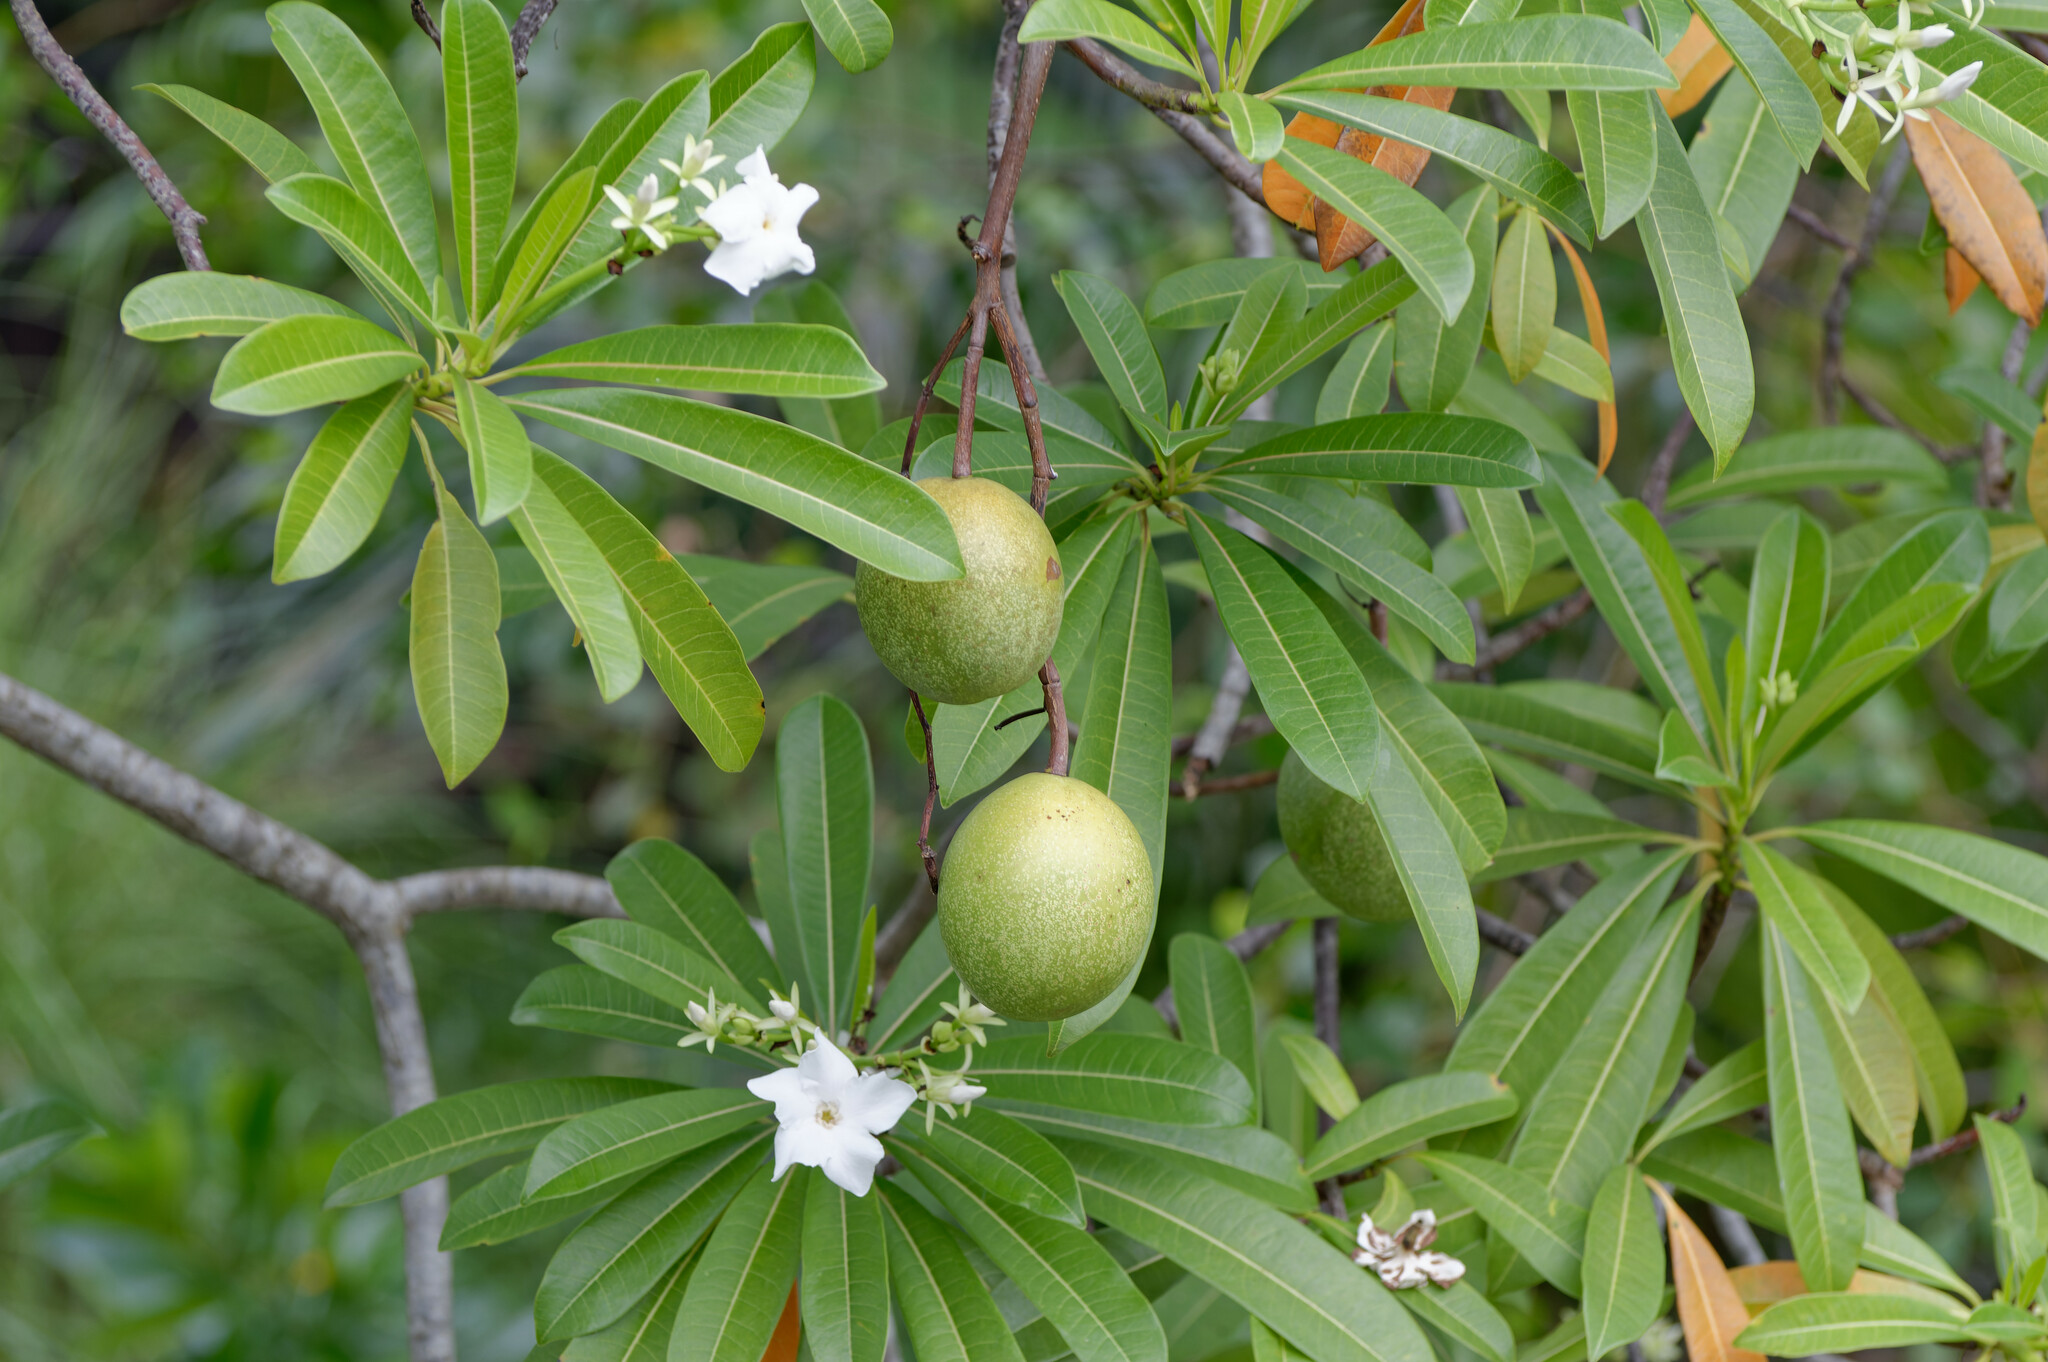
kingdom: Plantae
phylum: Tracheophyta
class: Magnoliopsida
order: Gentianales
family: Apocynaceae
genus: Cerbera
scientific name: Cerbera odollam
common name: Pong-pong
